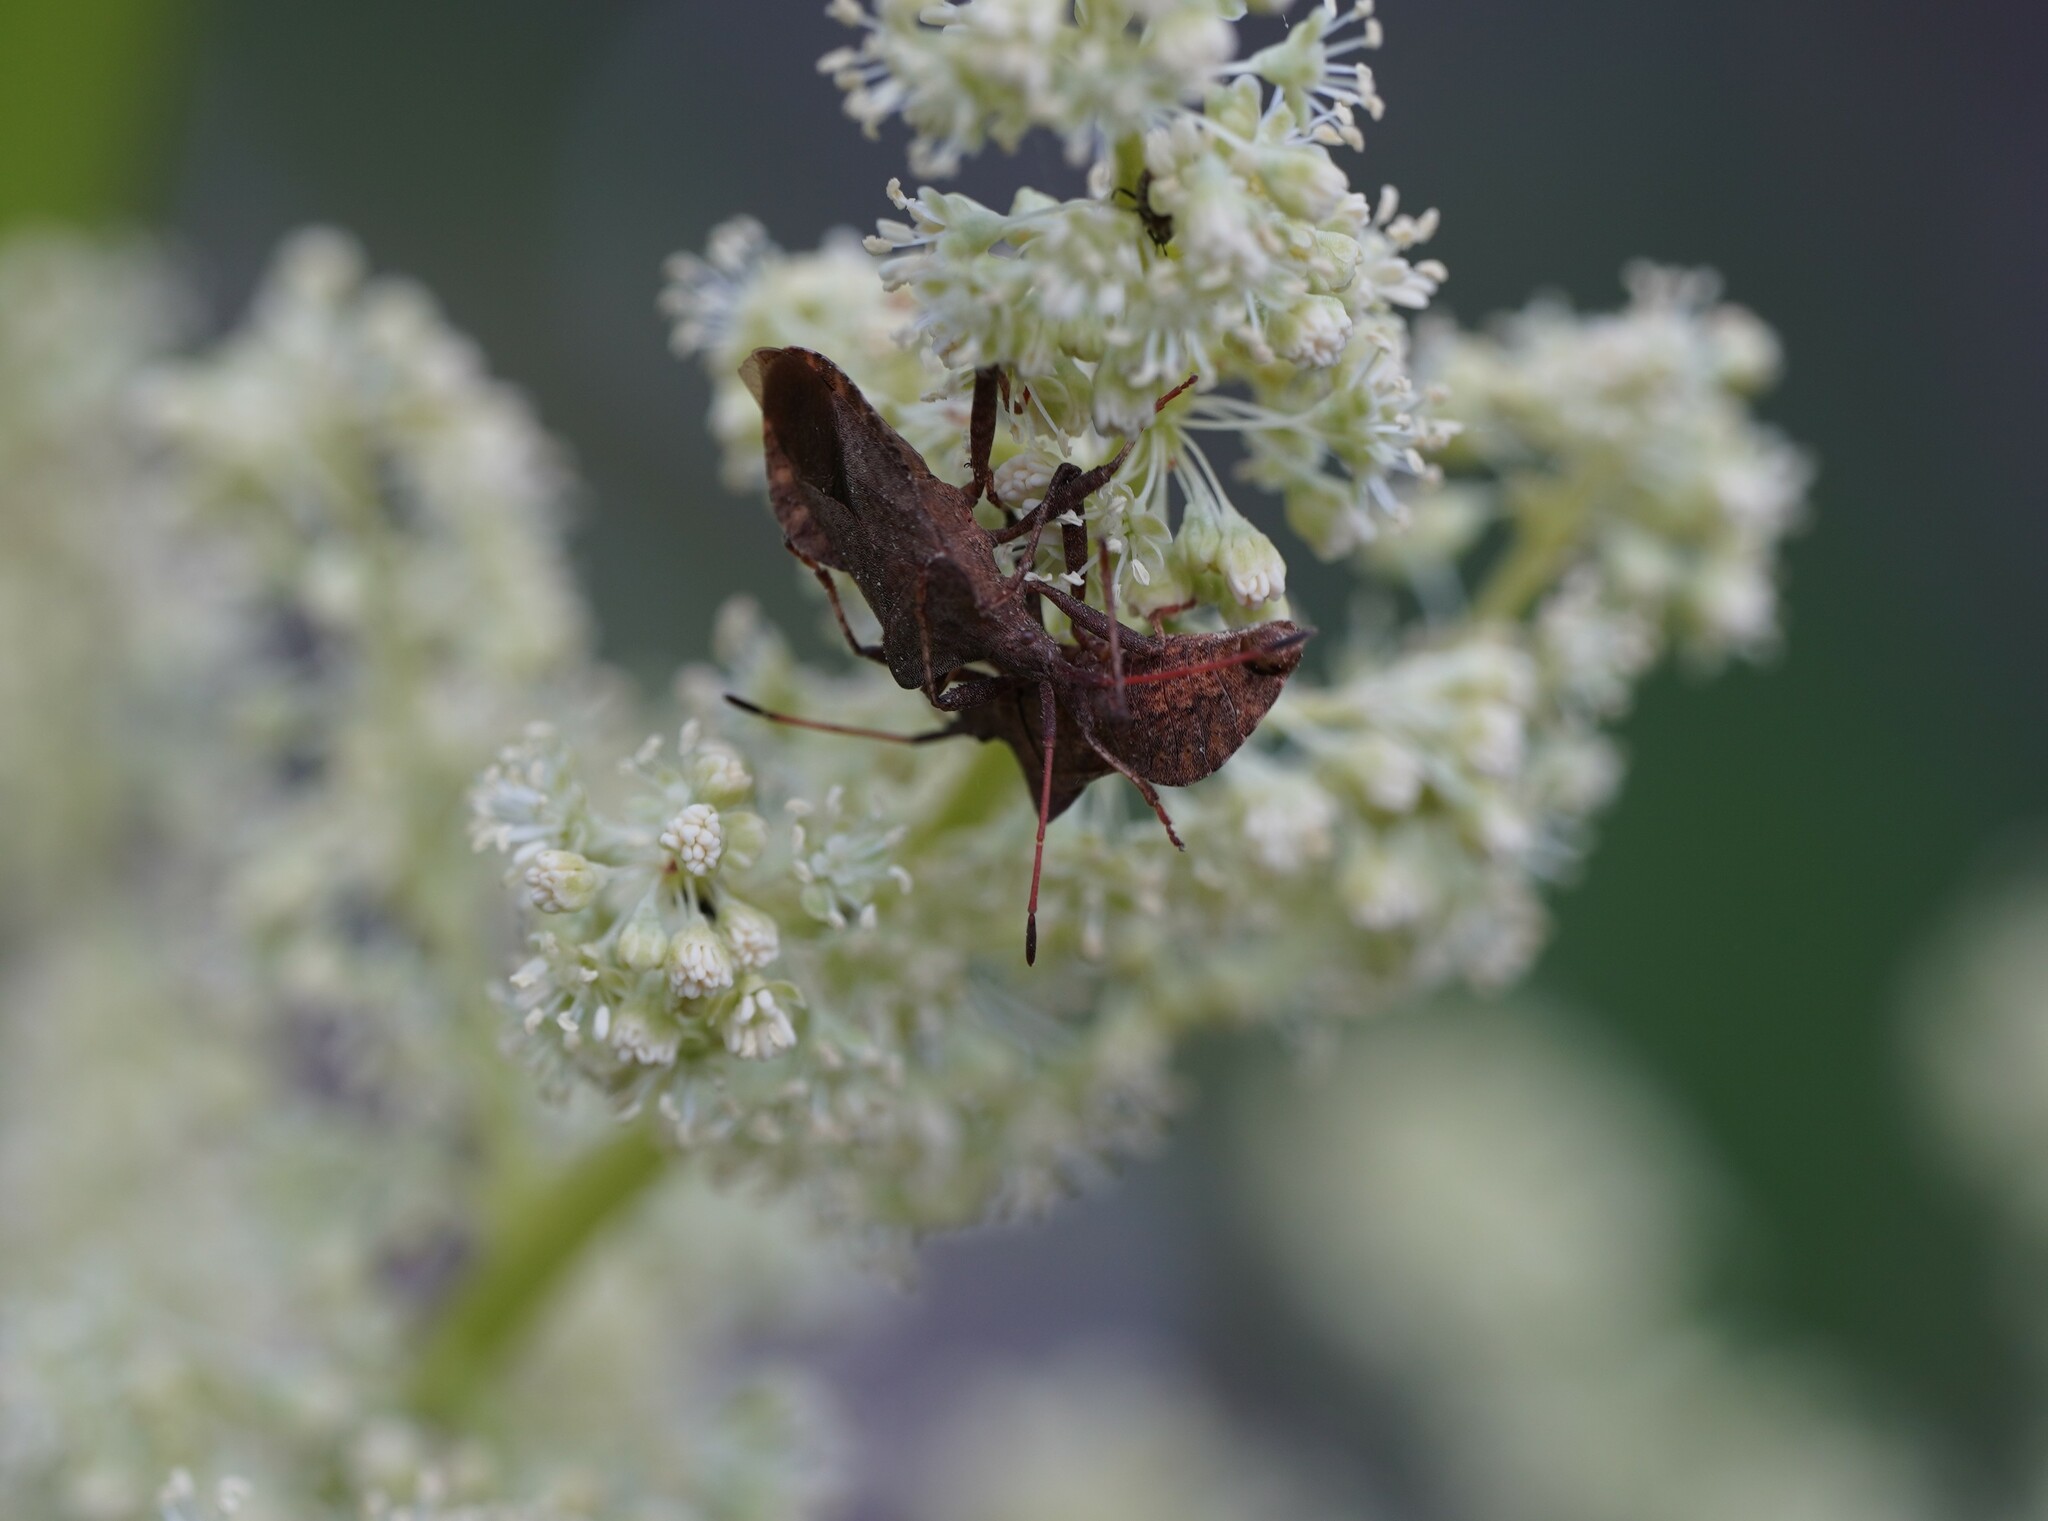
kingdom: Animalia
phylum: Arthropoda
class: Insecta
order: Hemiptera
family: Coreidae
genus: Coreus
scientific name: Coreus marginatus
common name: Dock bug
